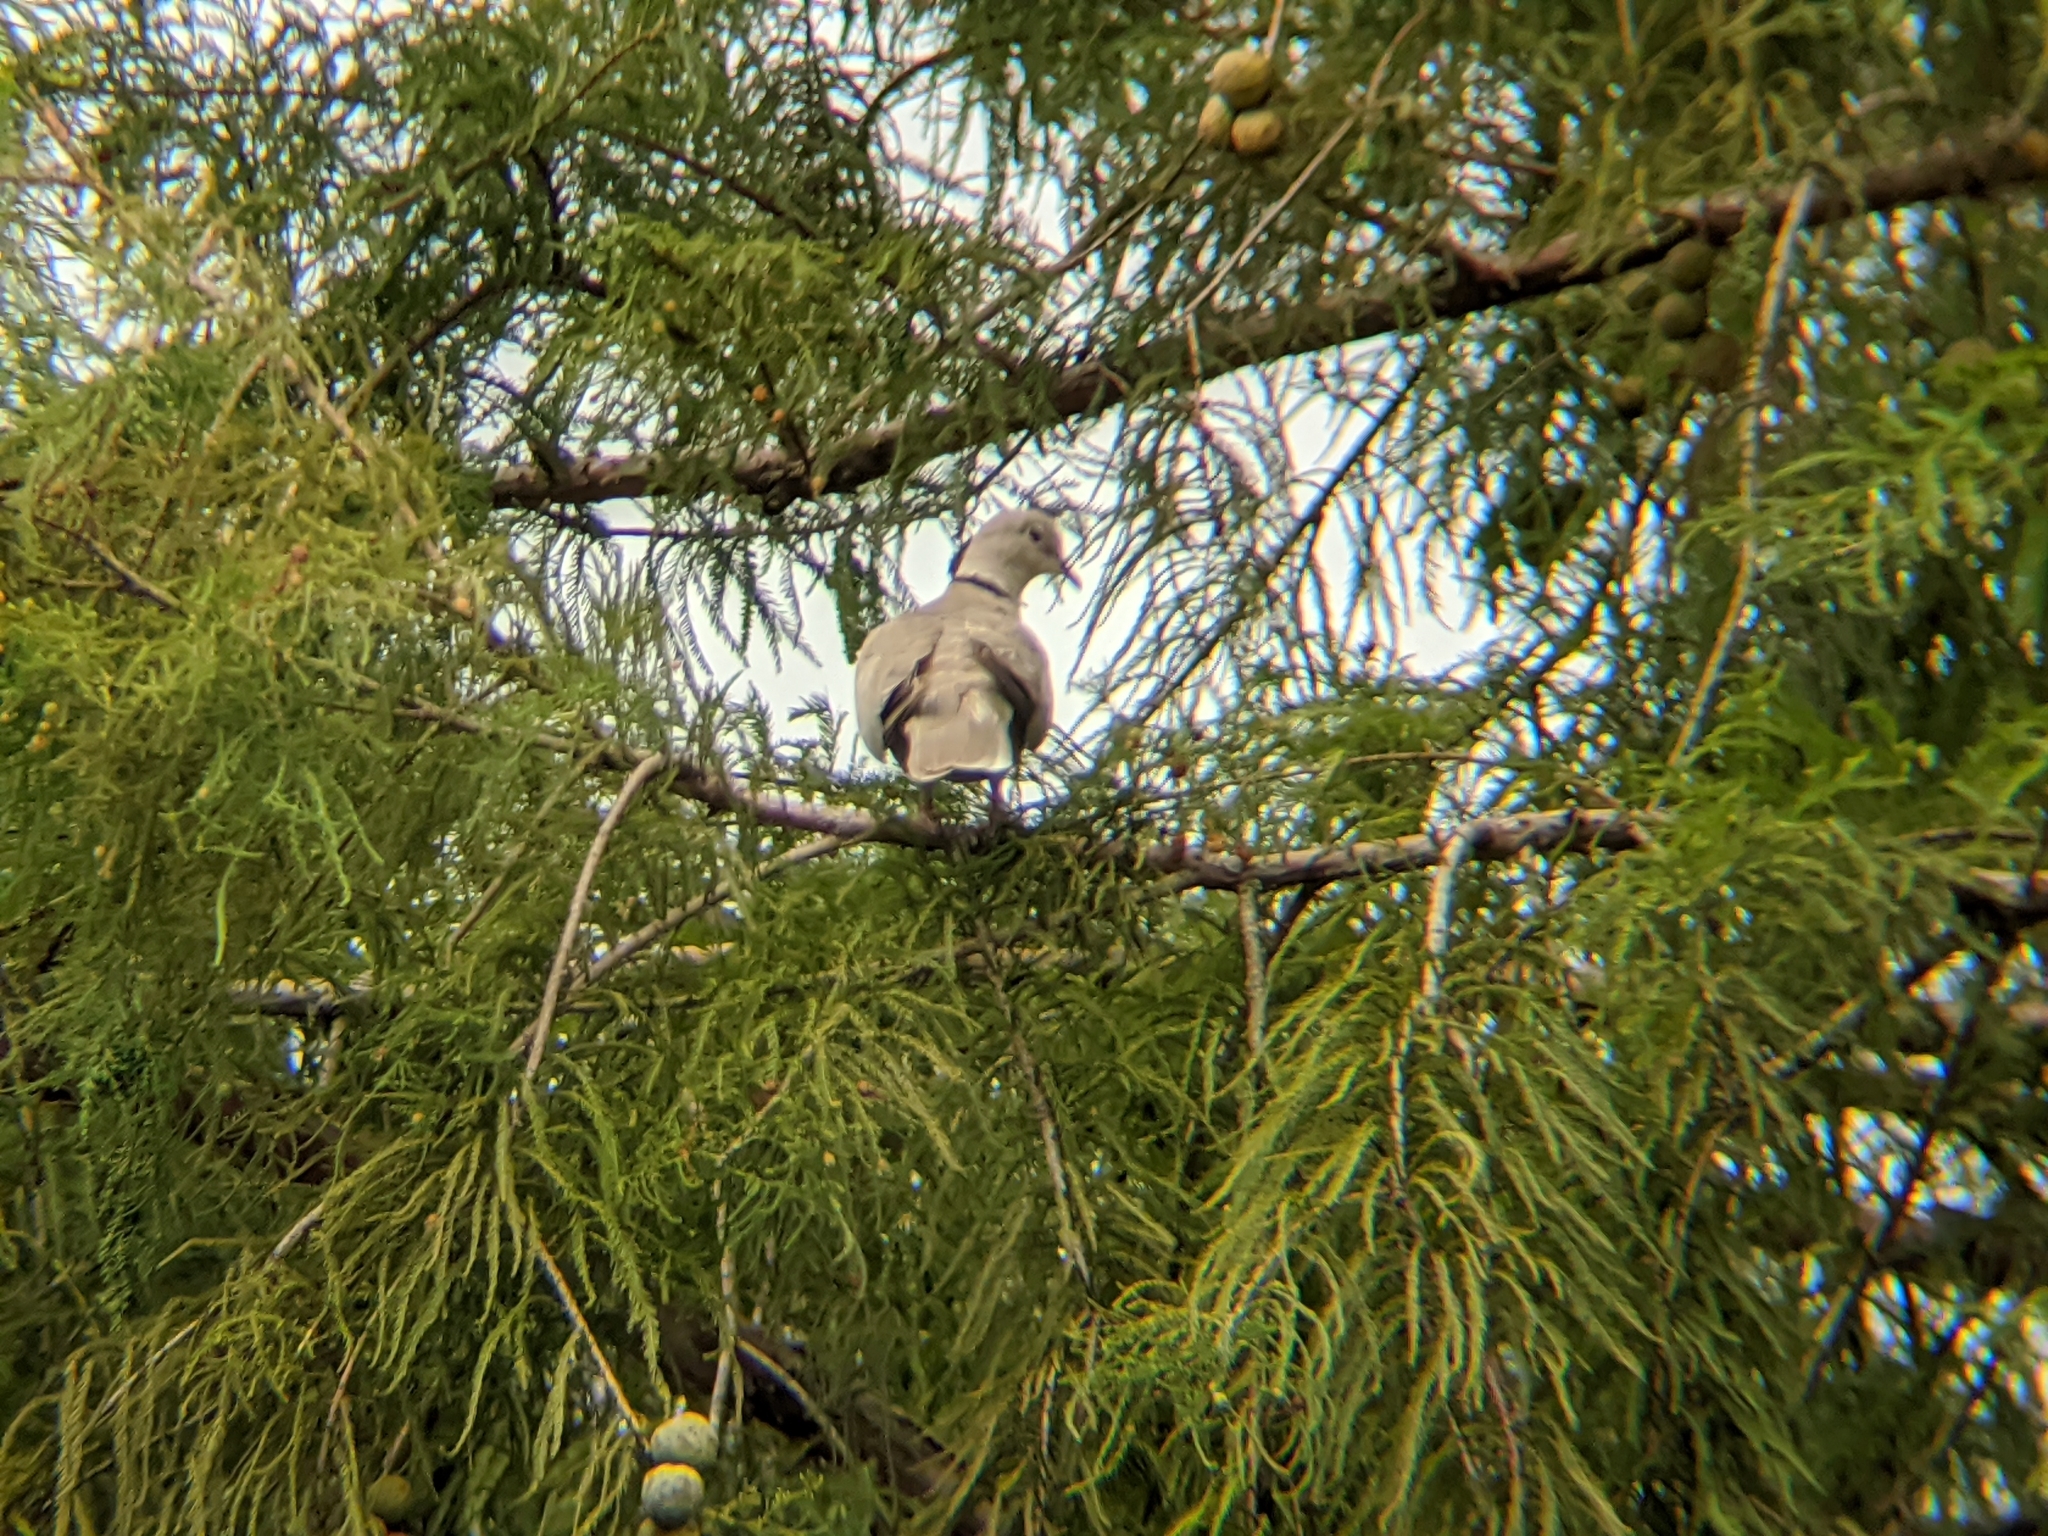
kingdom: Animalia
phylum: Chordata
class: Aves
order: Columbiformes
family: Columbidae
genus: Streptopelia
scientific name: Streptopelia decaocto
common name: Eurasian collared dove
